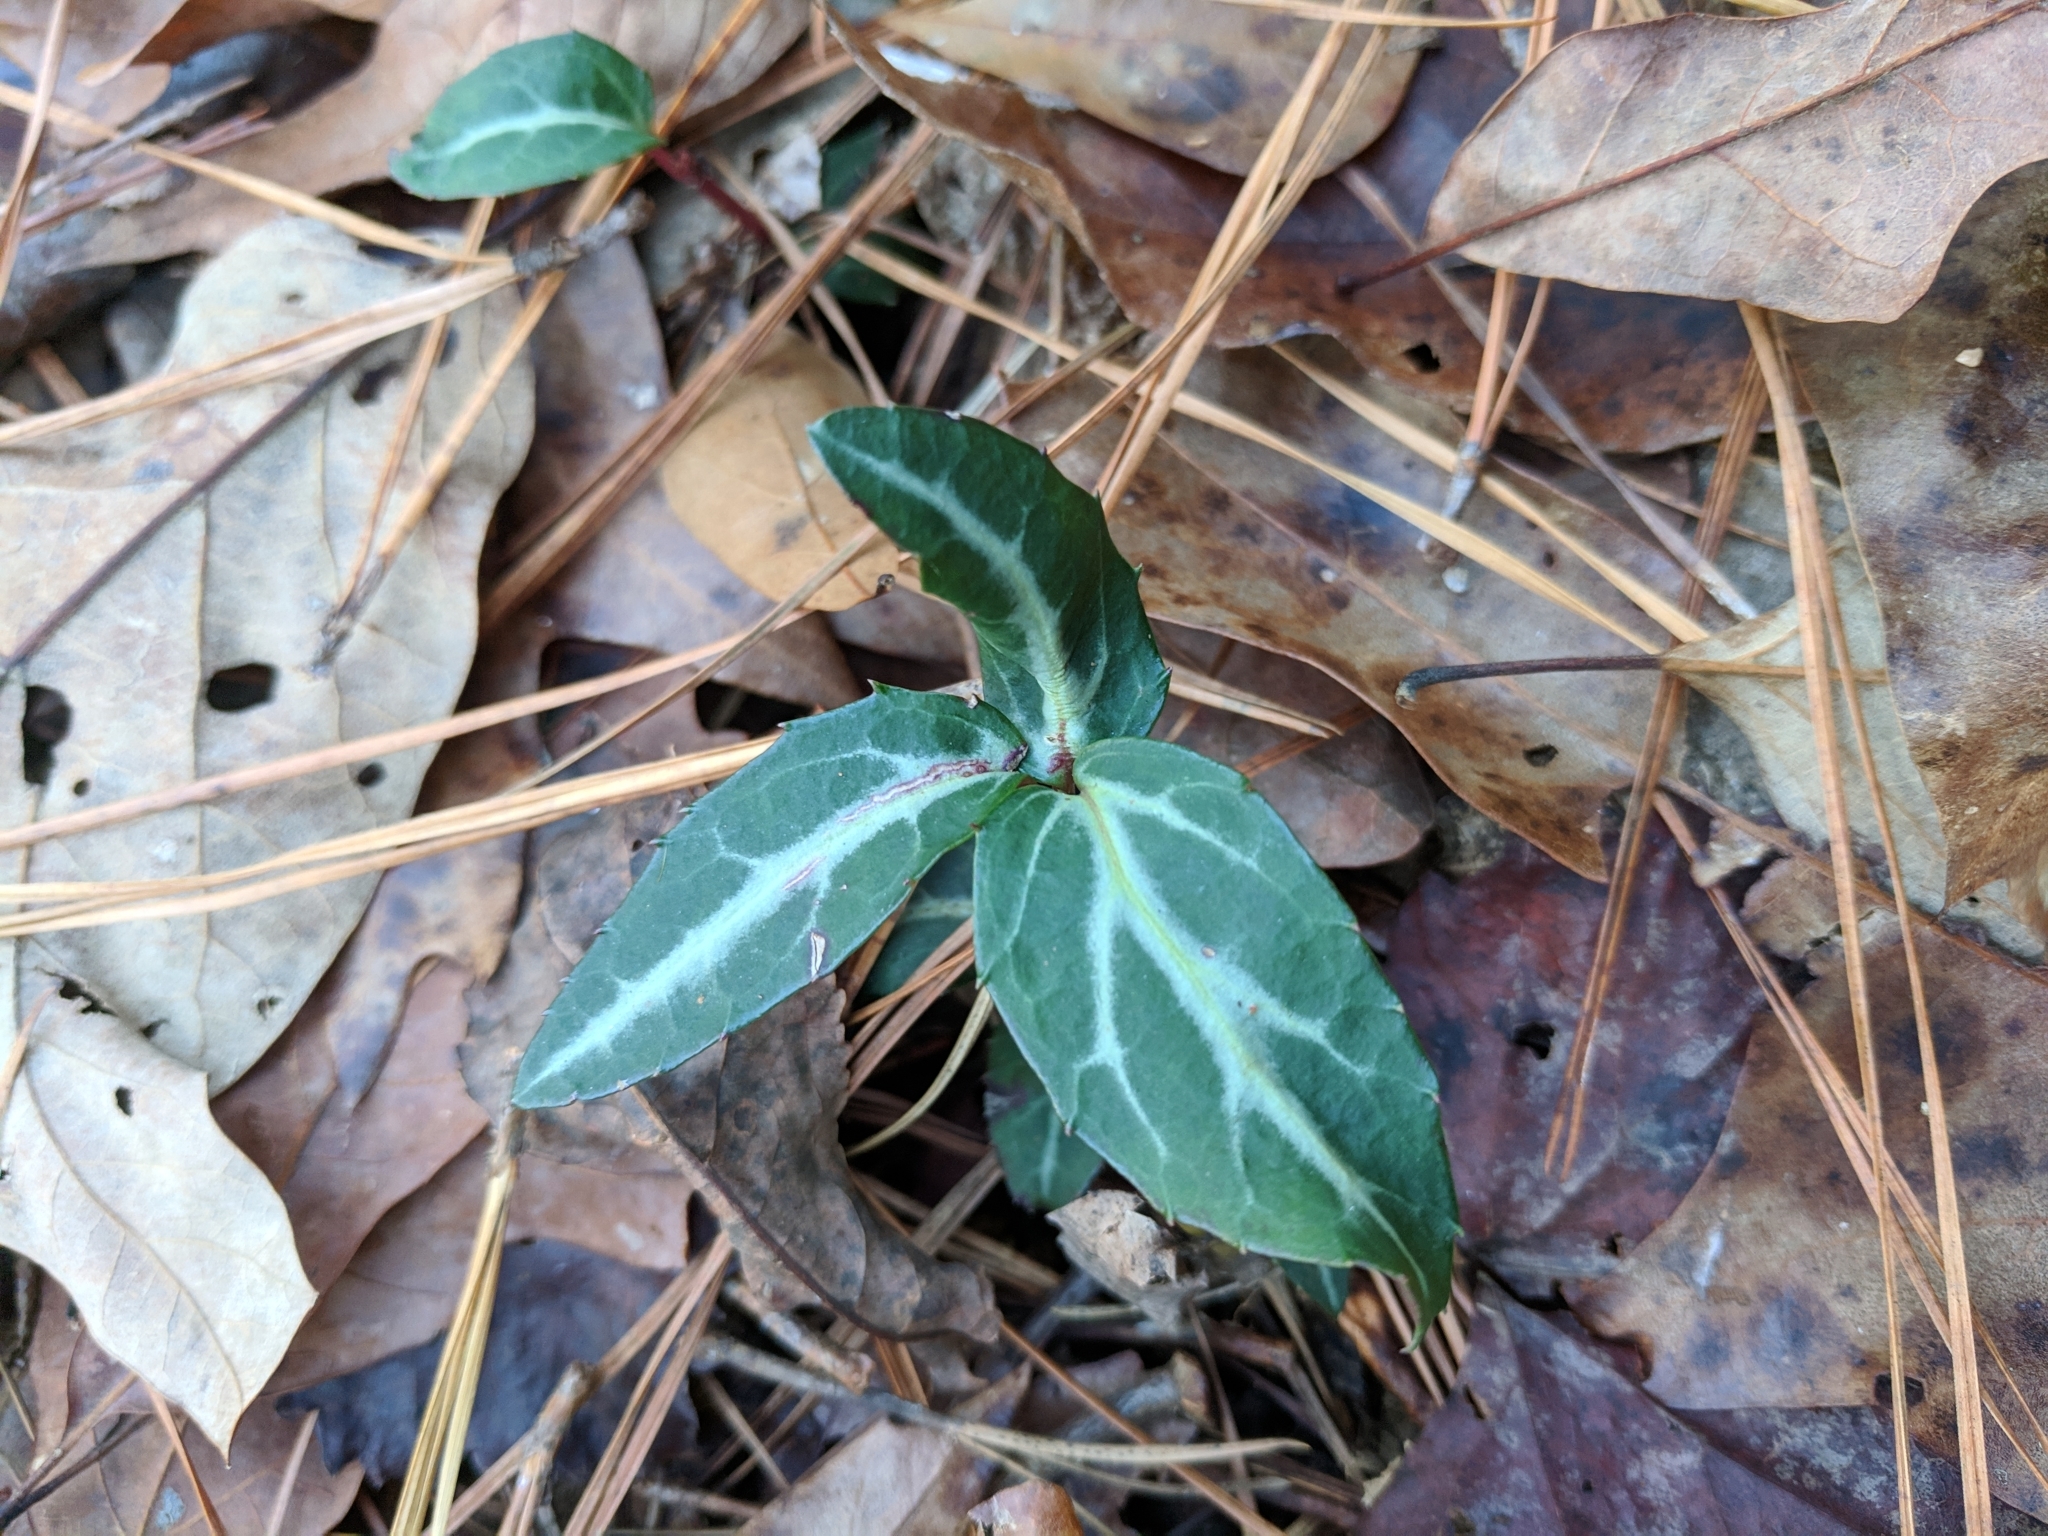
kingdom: Plantae
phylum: Tracheophyta
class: Magnoliopsida
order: Ericales
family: Ericaceae
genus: Chimaphila
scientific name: Chimaphila maculata
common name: Spotted pipsissewa
